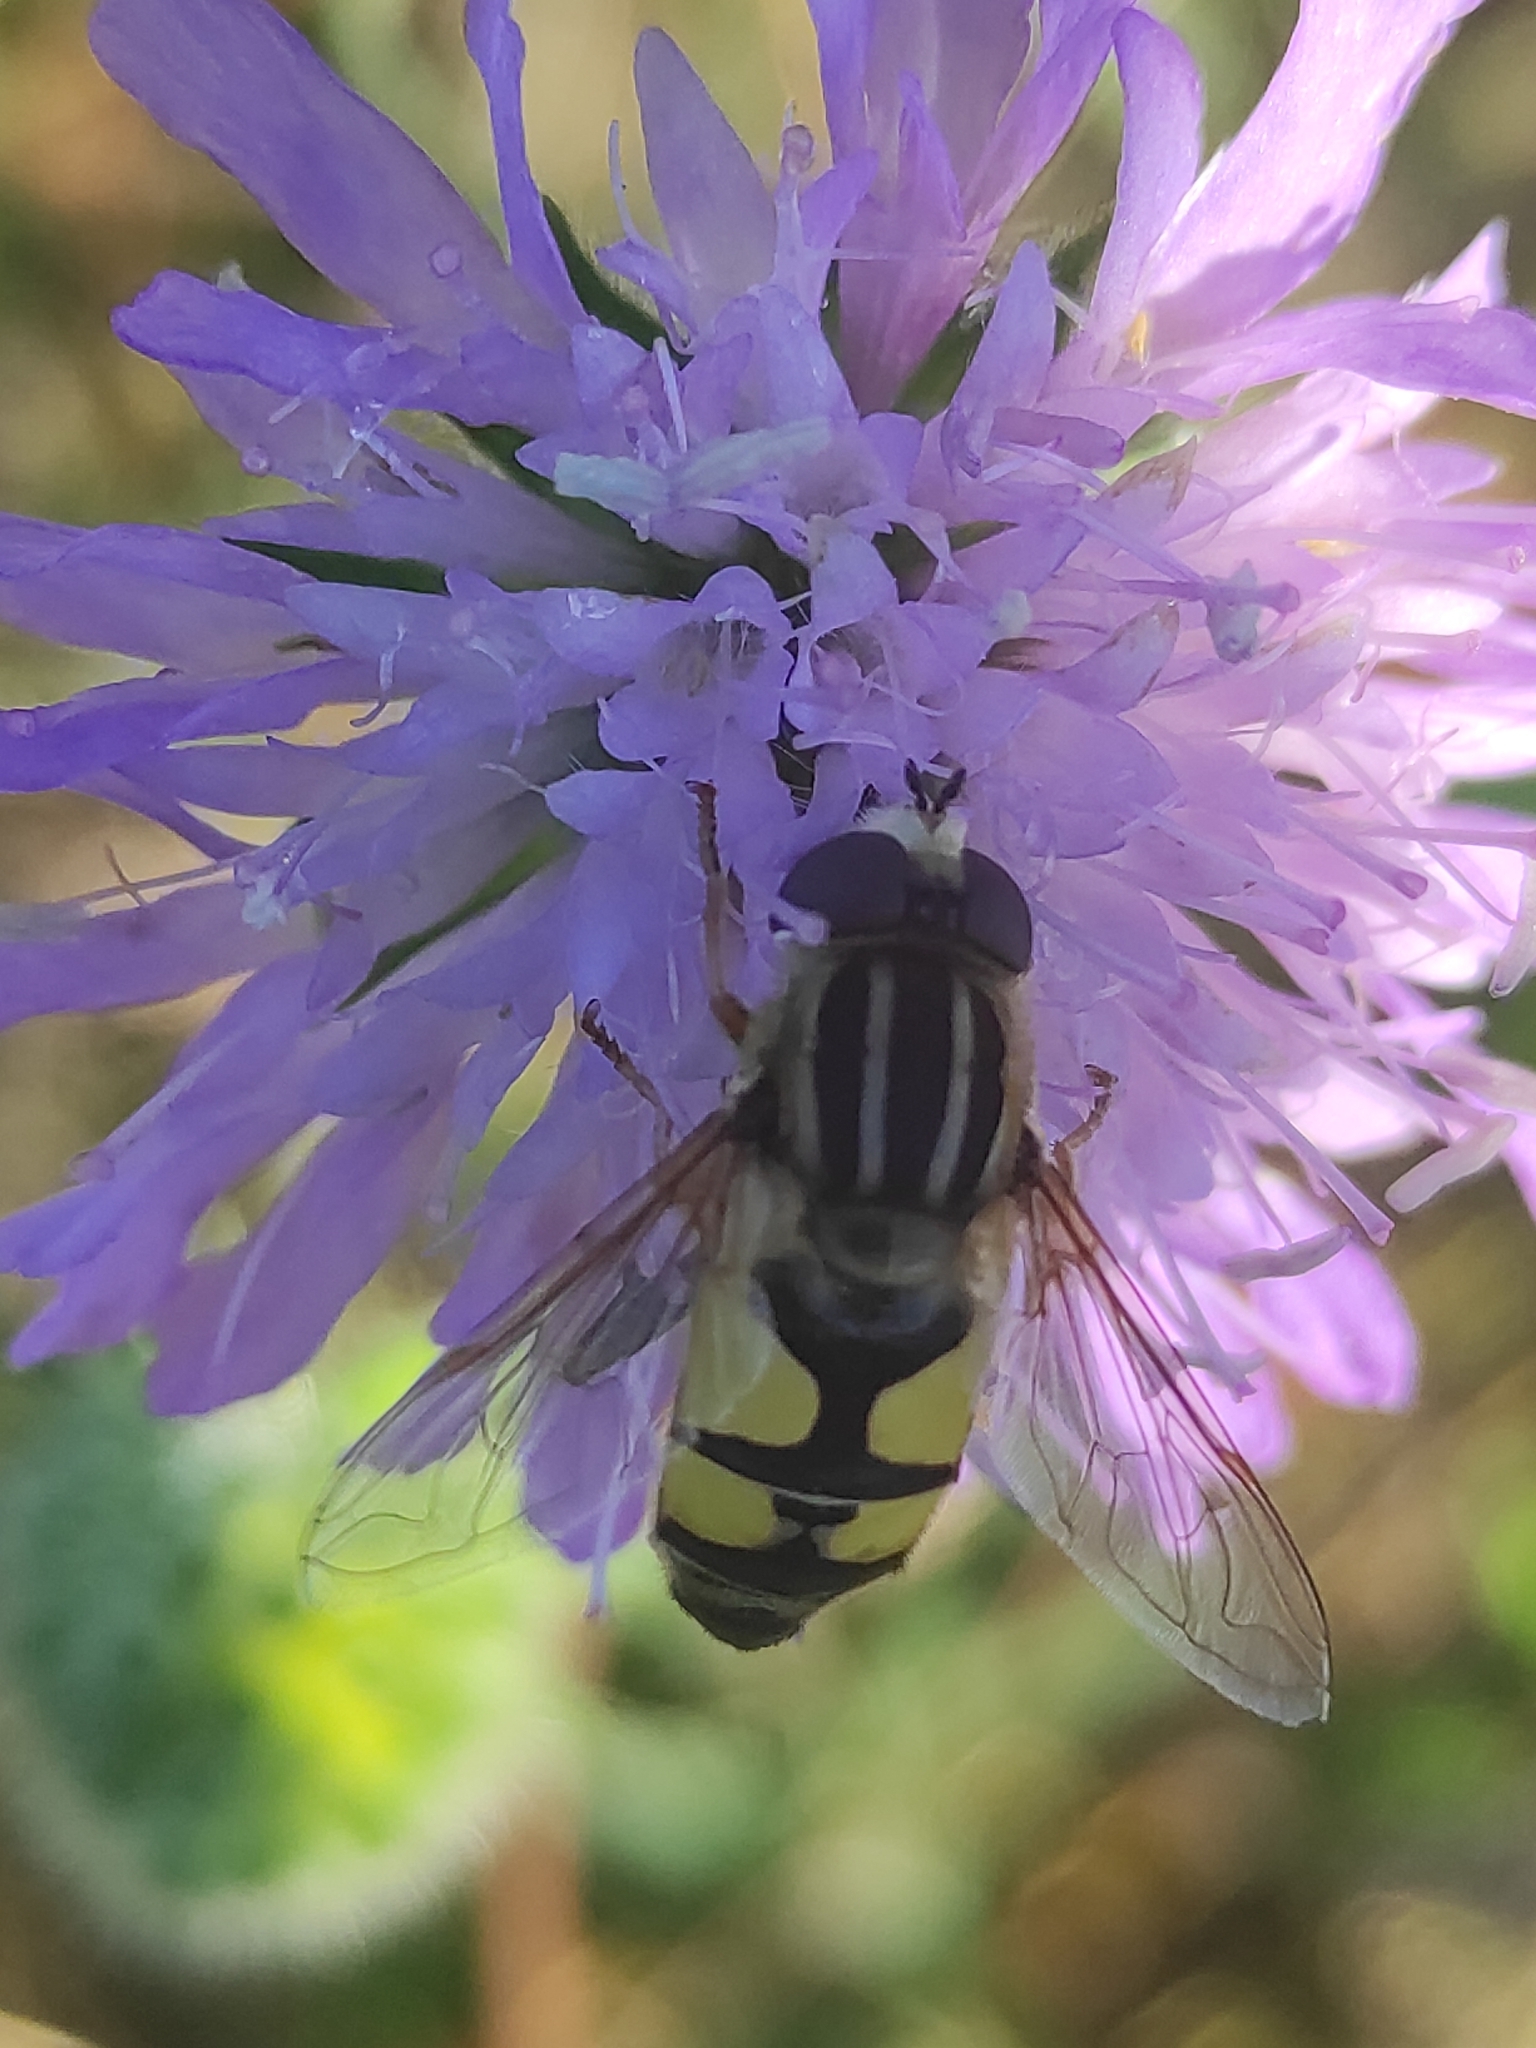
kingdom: Animalia
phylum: Arthropoda
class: Insecta
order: Diptera
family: Syrphidae
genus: Helophilus
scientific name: Helophilus trivittatus
